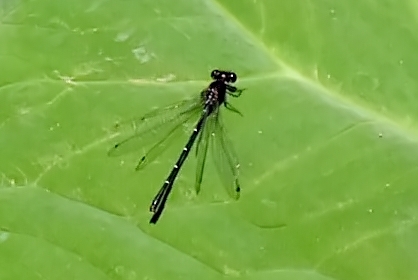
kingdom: Animalia
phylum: Arthropoda
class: Insecta
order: Odonata
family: Platycnemididae
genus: Onychargia
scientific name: Onychargia atrocyana
